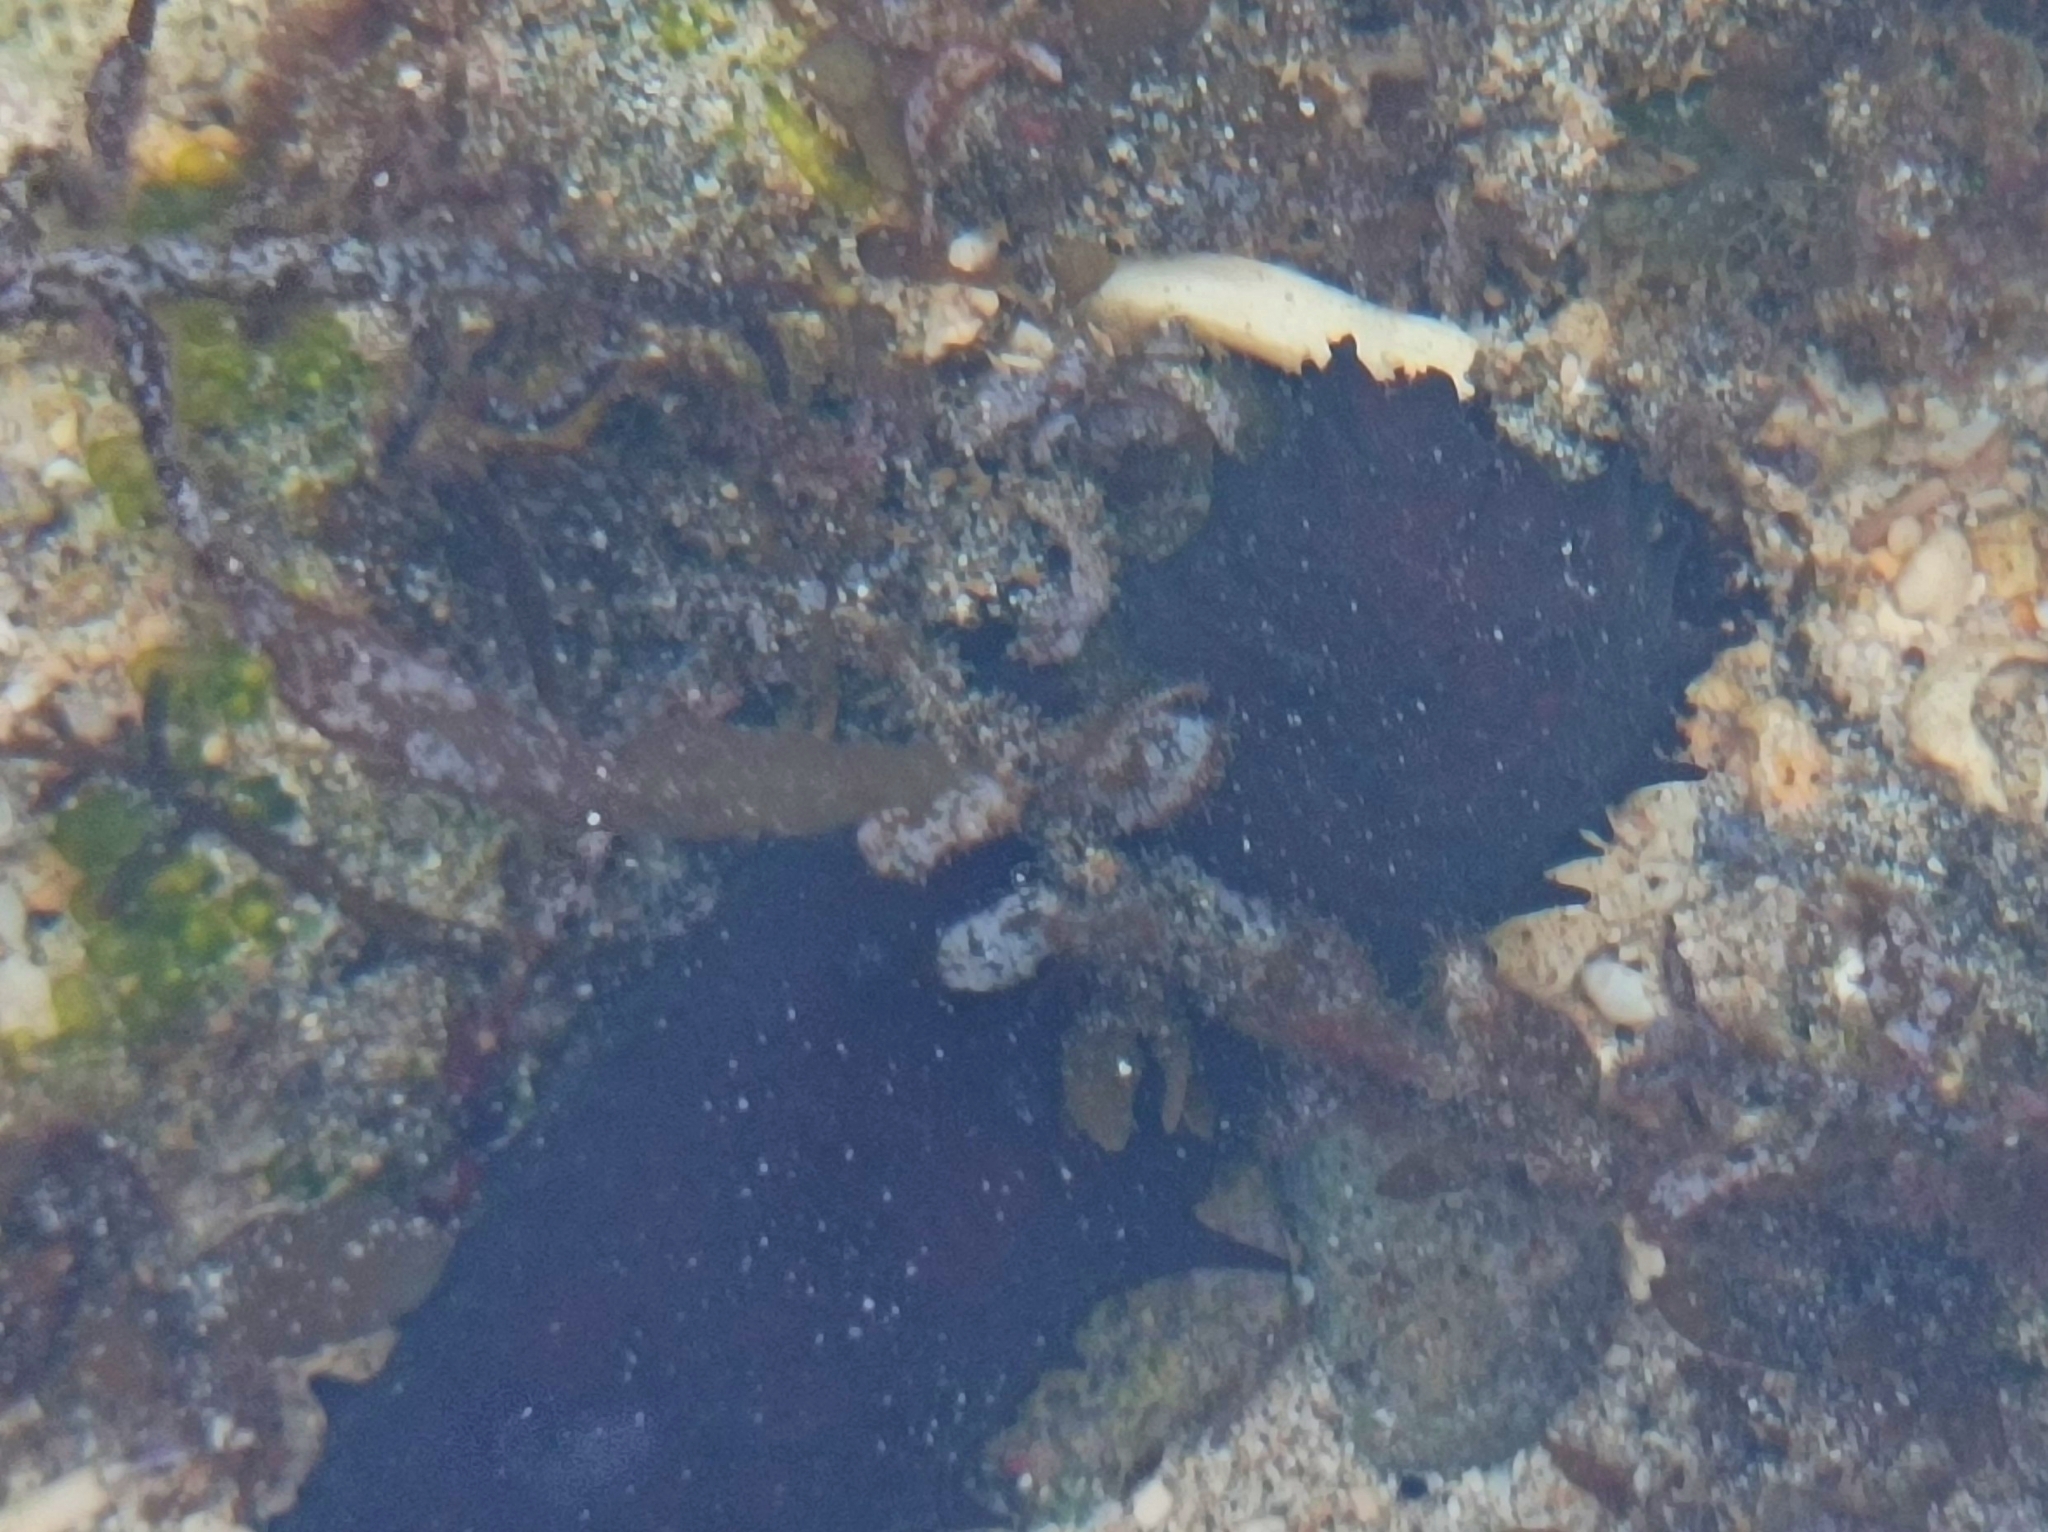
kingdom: Animalia
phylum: Echinodermata
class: Holothuroidea
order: Holothuriida
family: Holothuriidae
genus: Holothuria
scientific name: Holothuria leucospilota
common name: White thread fish
